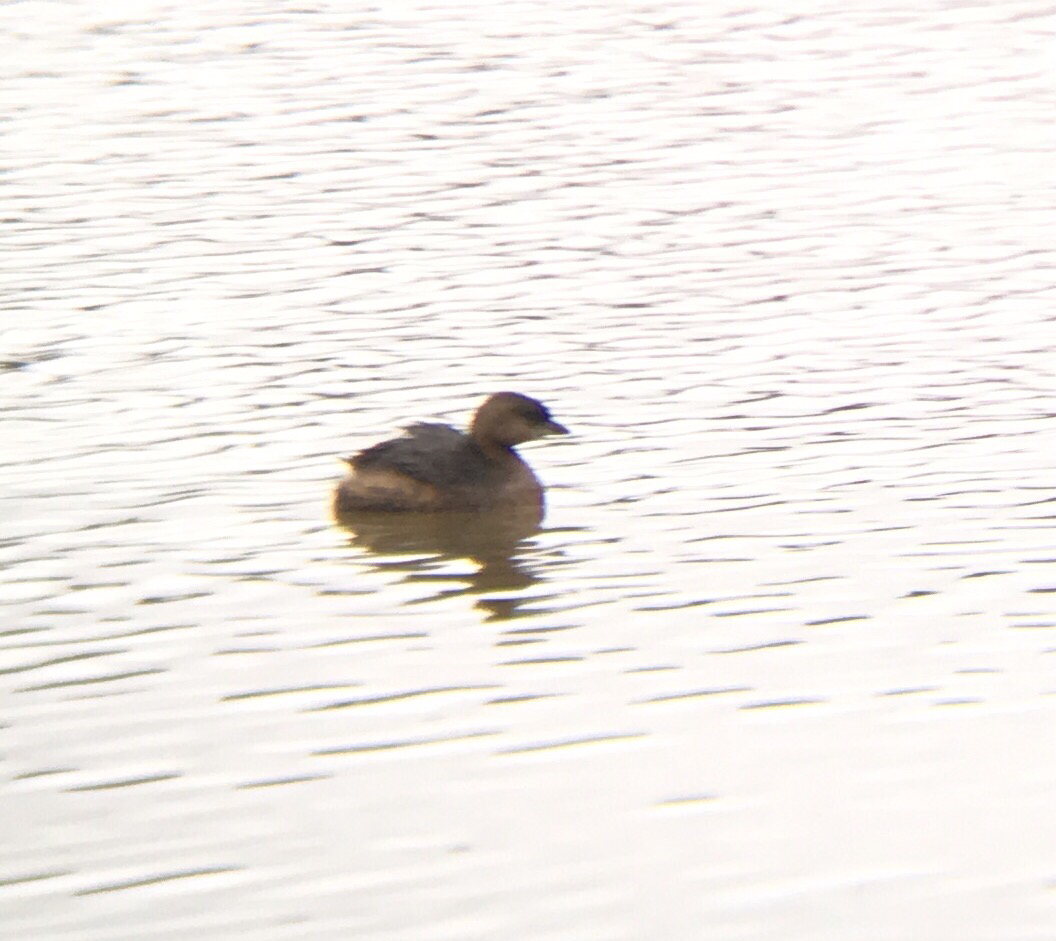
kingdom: Animalia
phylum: Chordata
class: Aves
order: Podicipediformes
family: Podicipedidae
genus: Podilymbus
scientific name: Podilymbus podiceps
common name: Pied-billed grebe
